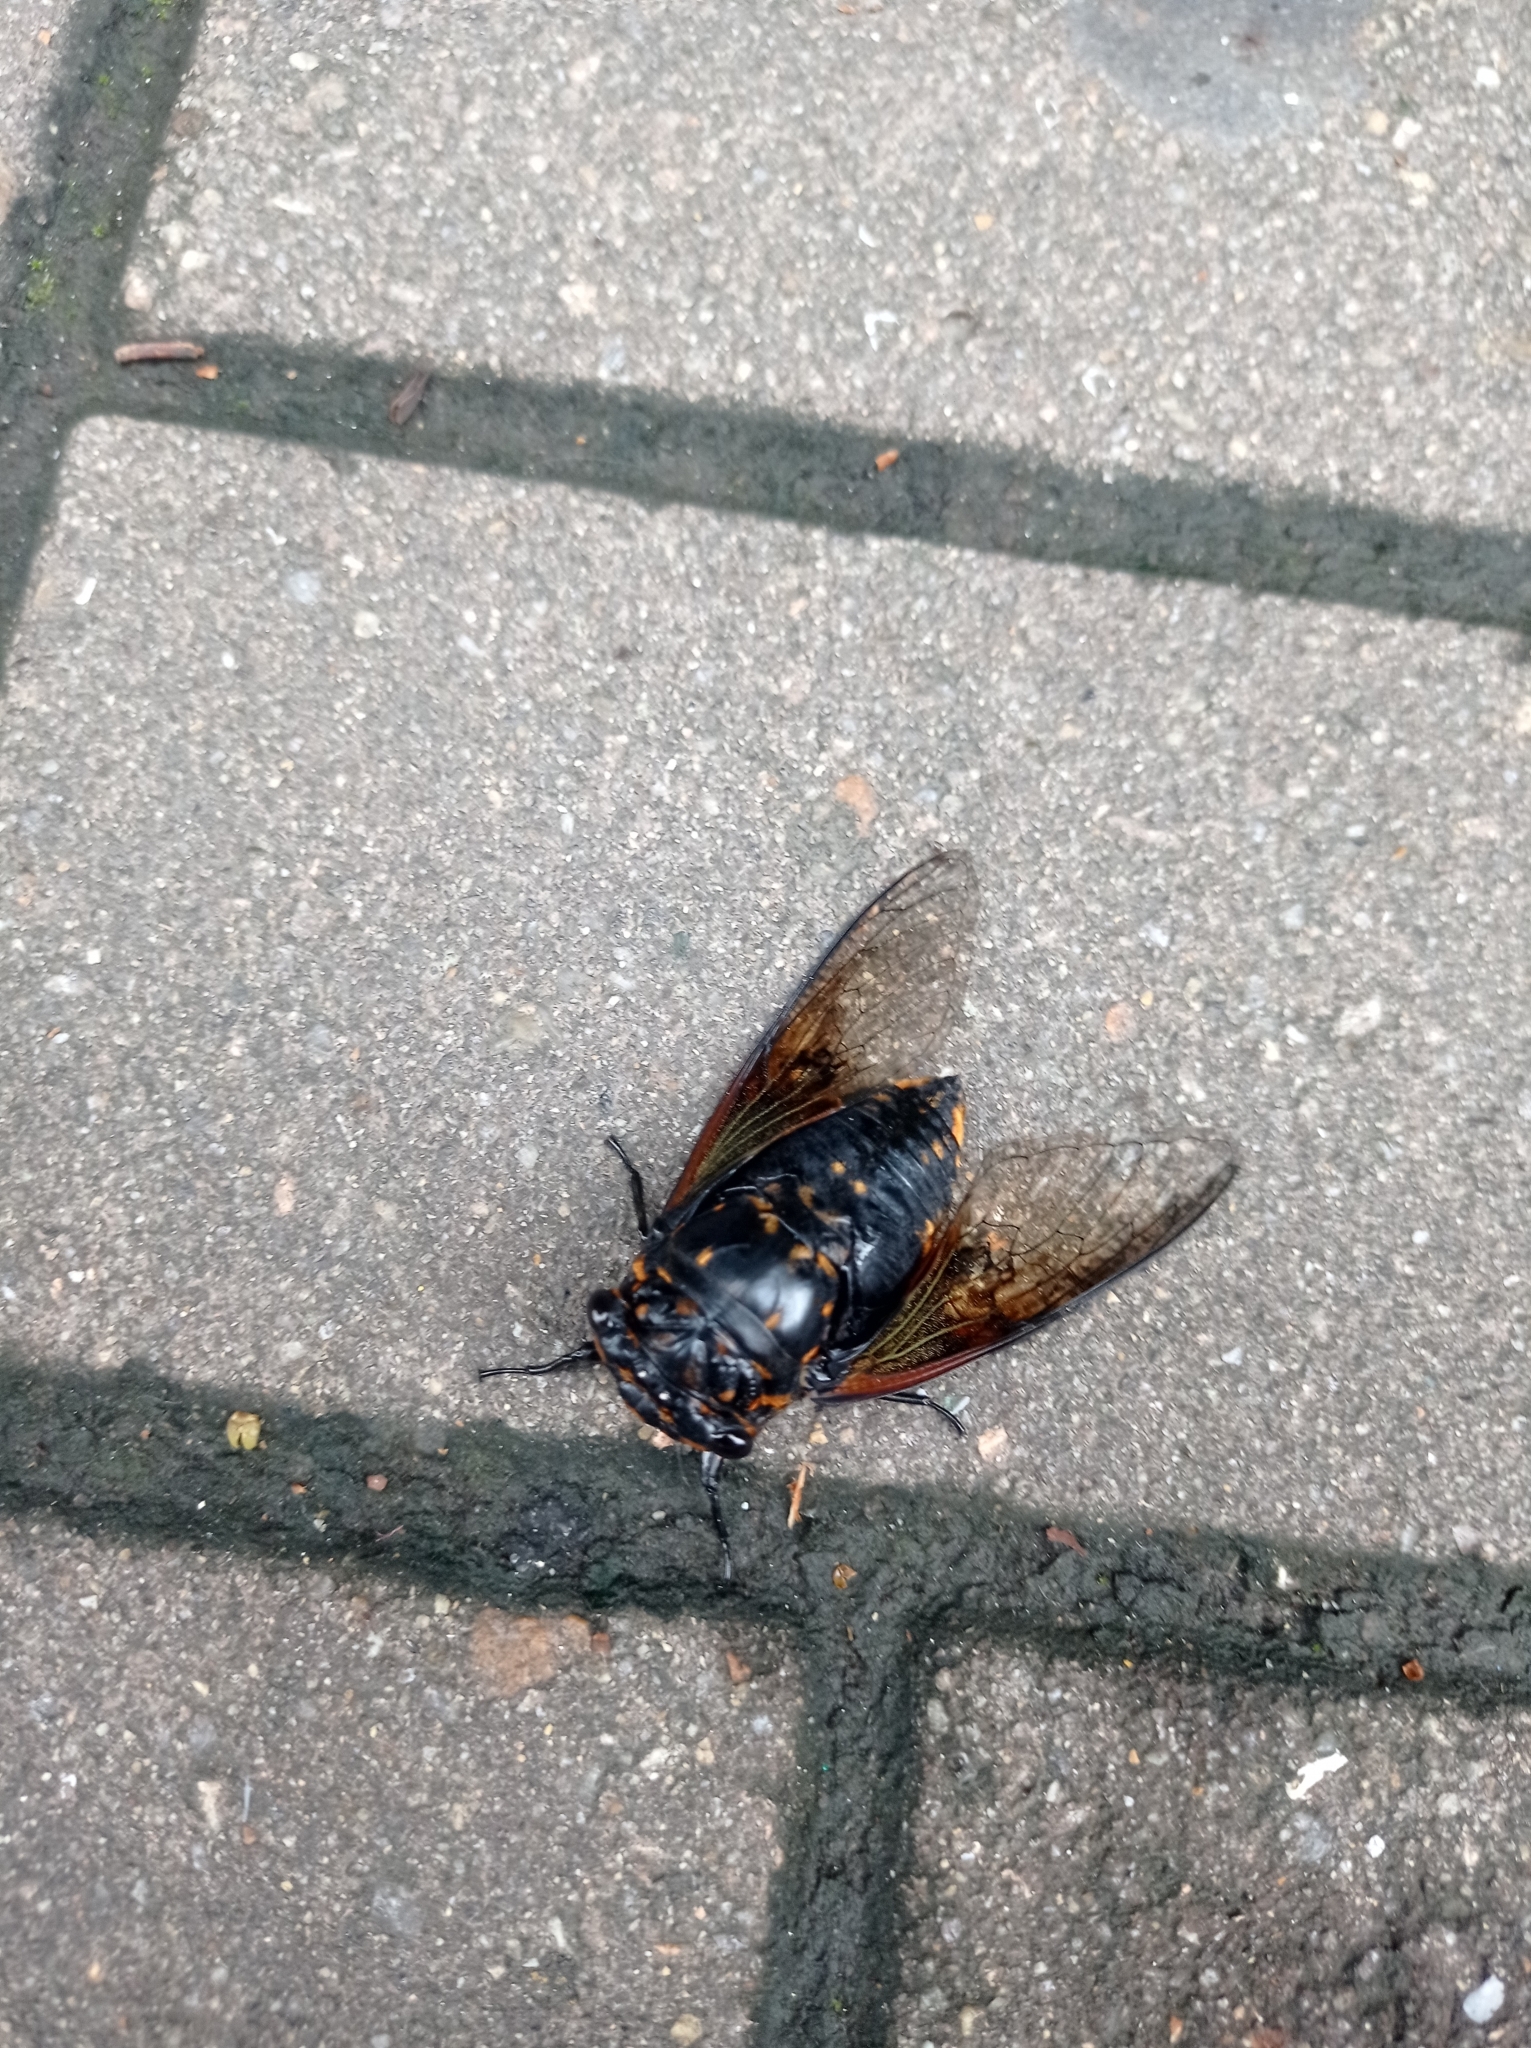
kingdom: Animalia
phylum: Arthropoda
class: Insecta
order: Hemiptera
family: Cicadidae
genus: Cryptotympana
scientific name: Cryptotympana mandarina
